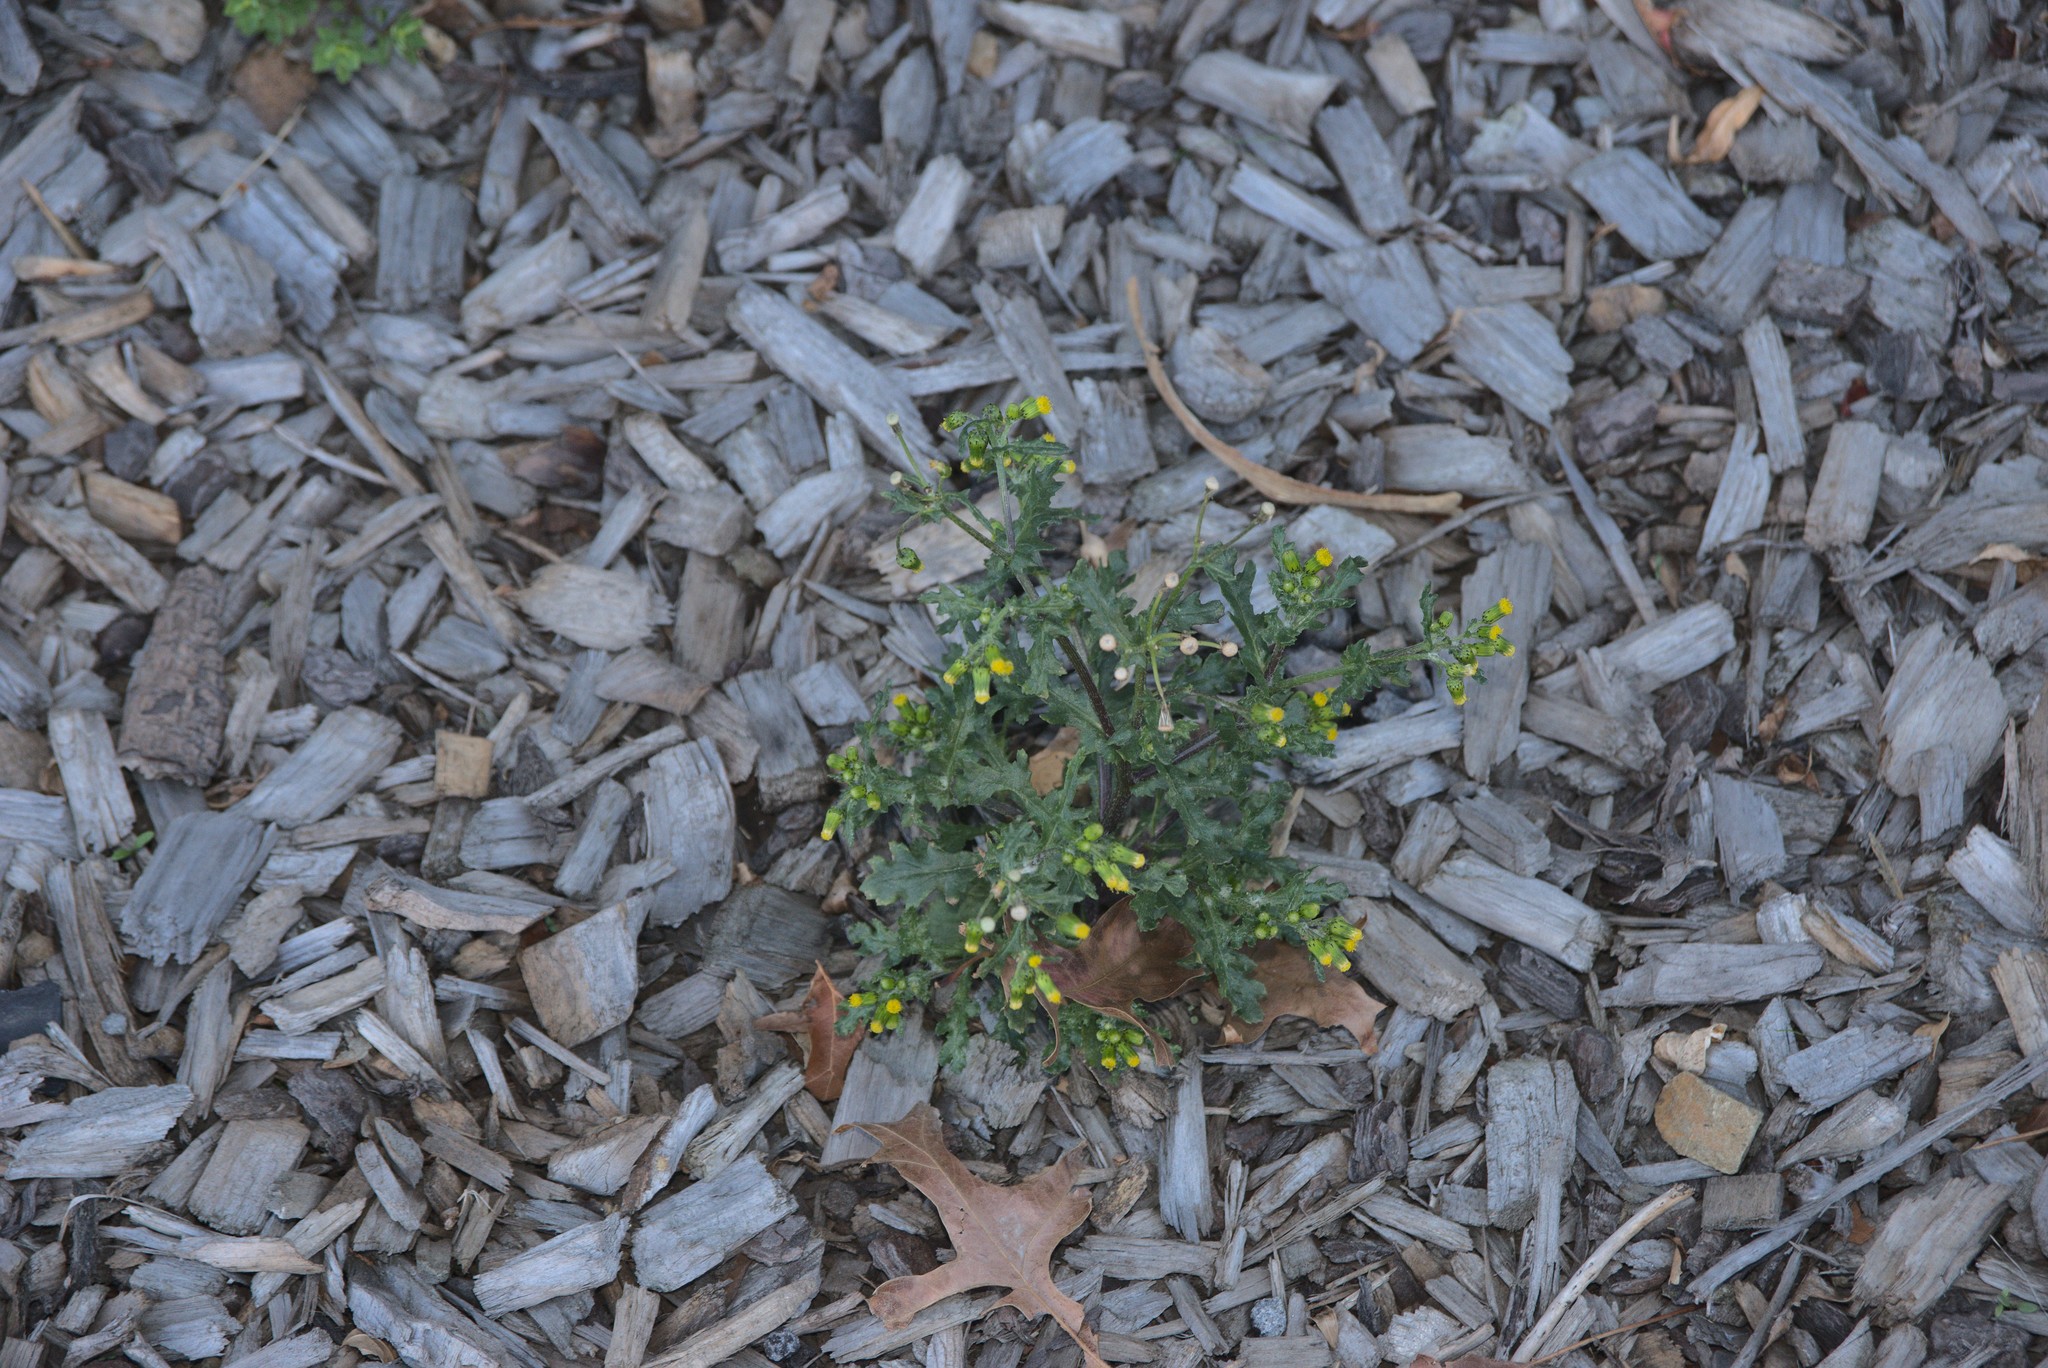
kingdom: Plantae
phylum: Tracheophyta
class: Magnoliopsida
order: Asterales
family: Asteraceae
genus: Senecio
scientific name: Senecio vulgaris
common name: Old-man-in-the-spring
